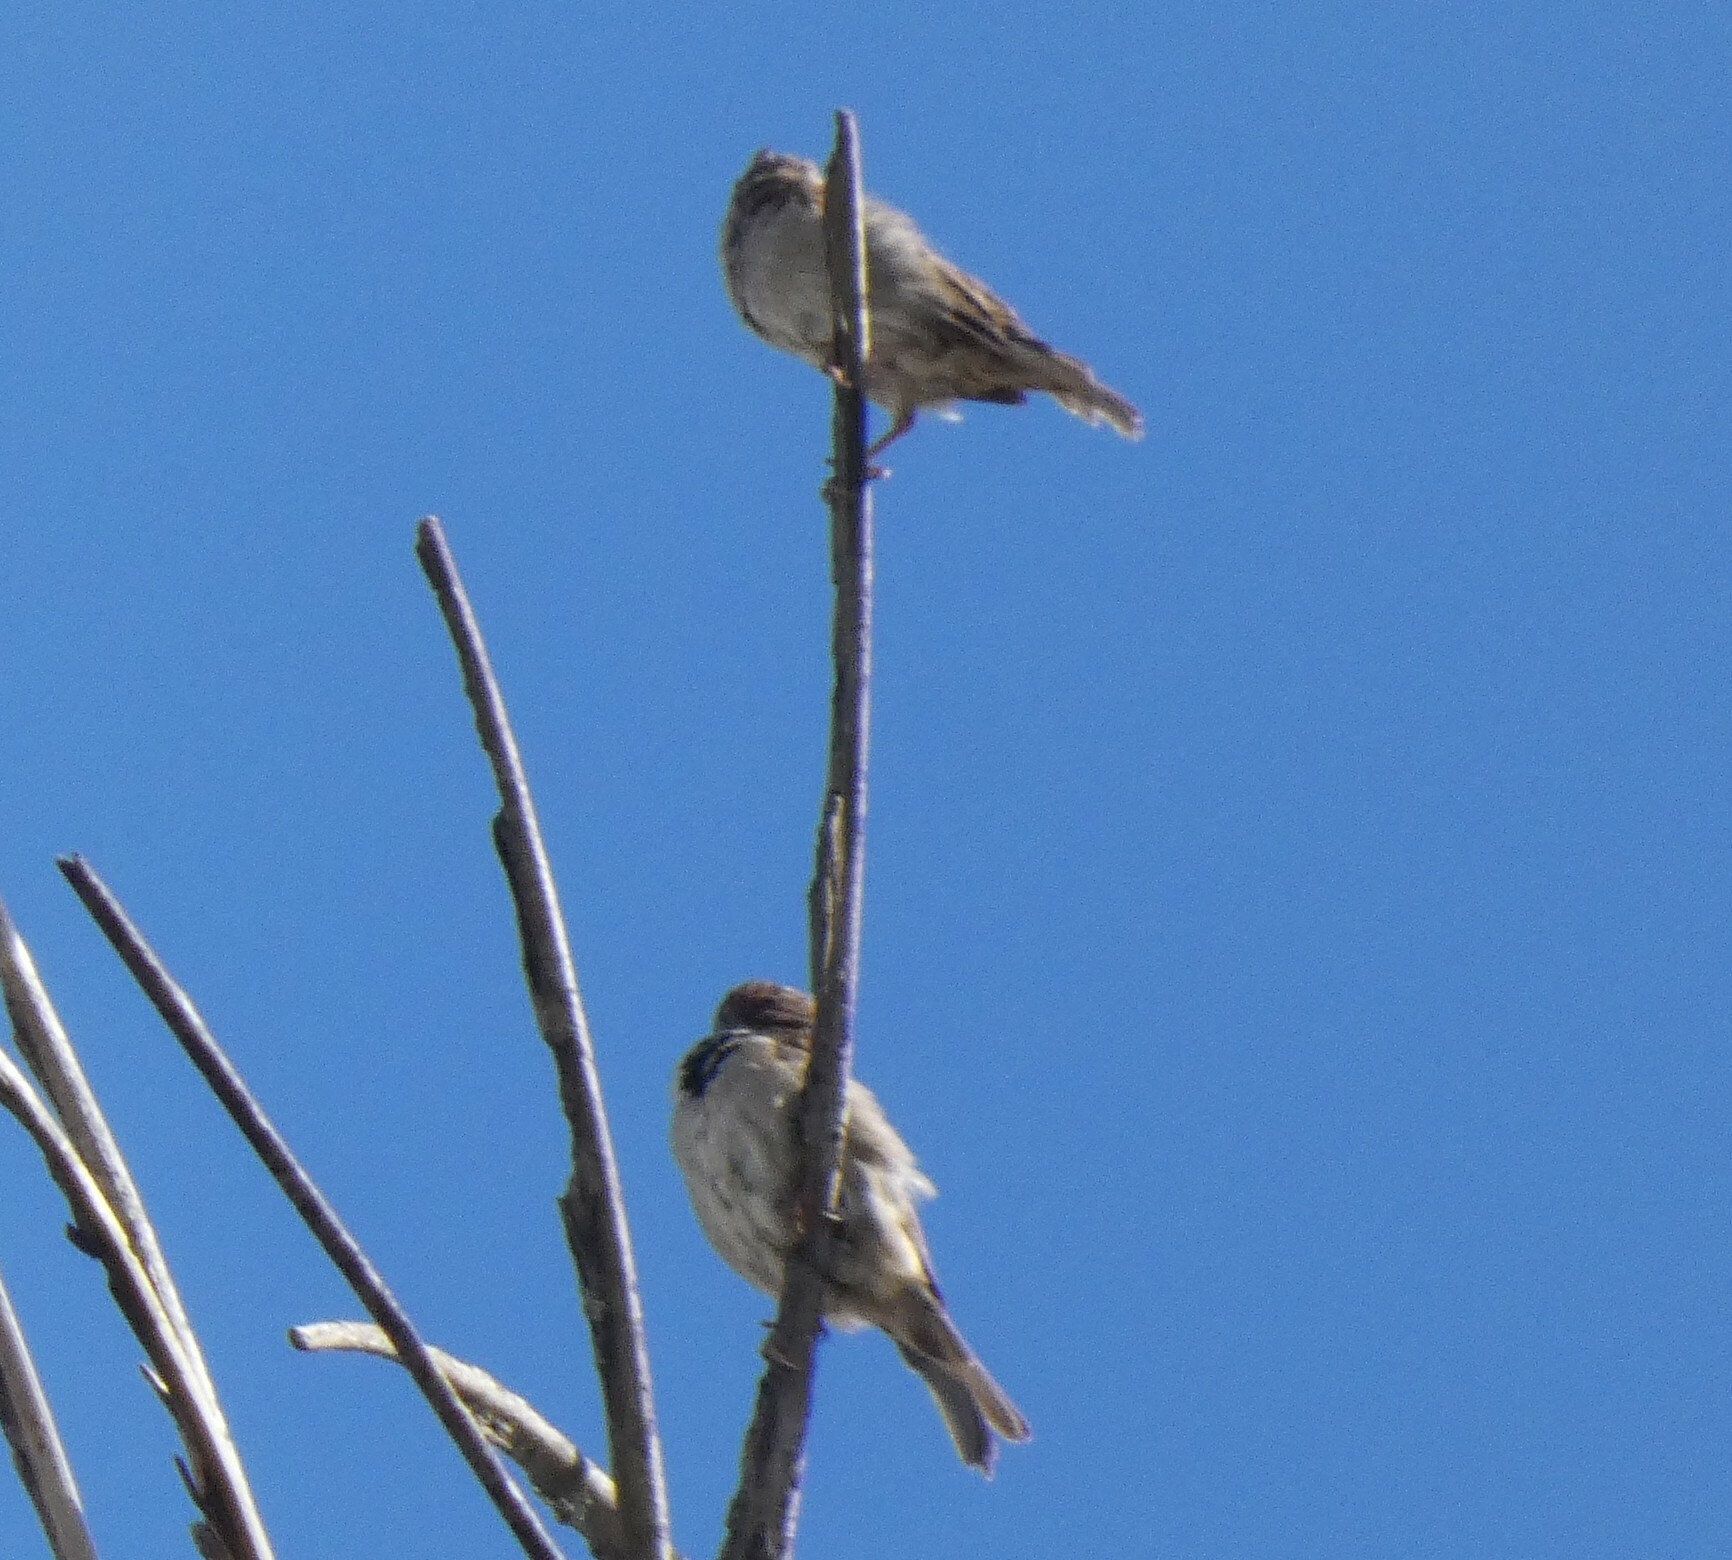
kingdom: Animalia
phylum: Chordata
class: Aves
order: Passeriformes
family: Passeridae
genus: Passer
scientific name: Passer domesticus
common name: House sparrow
